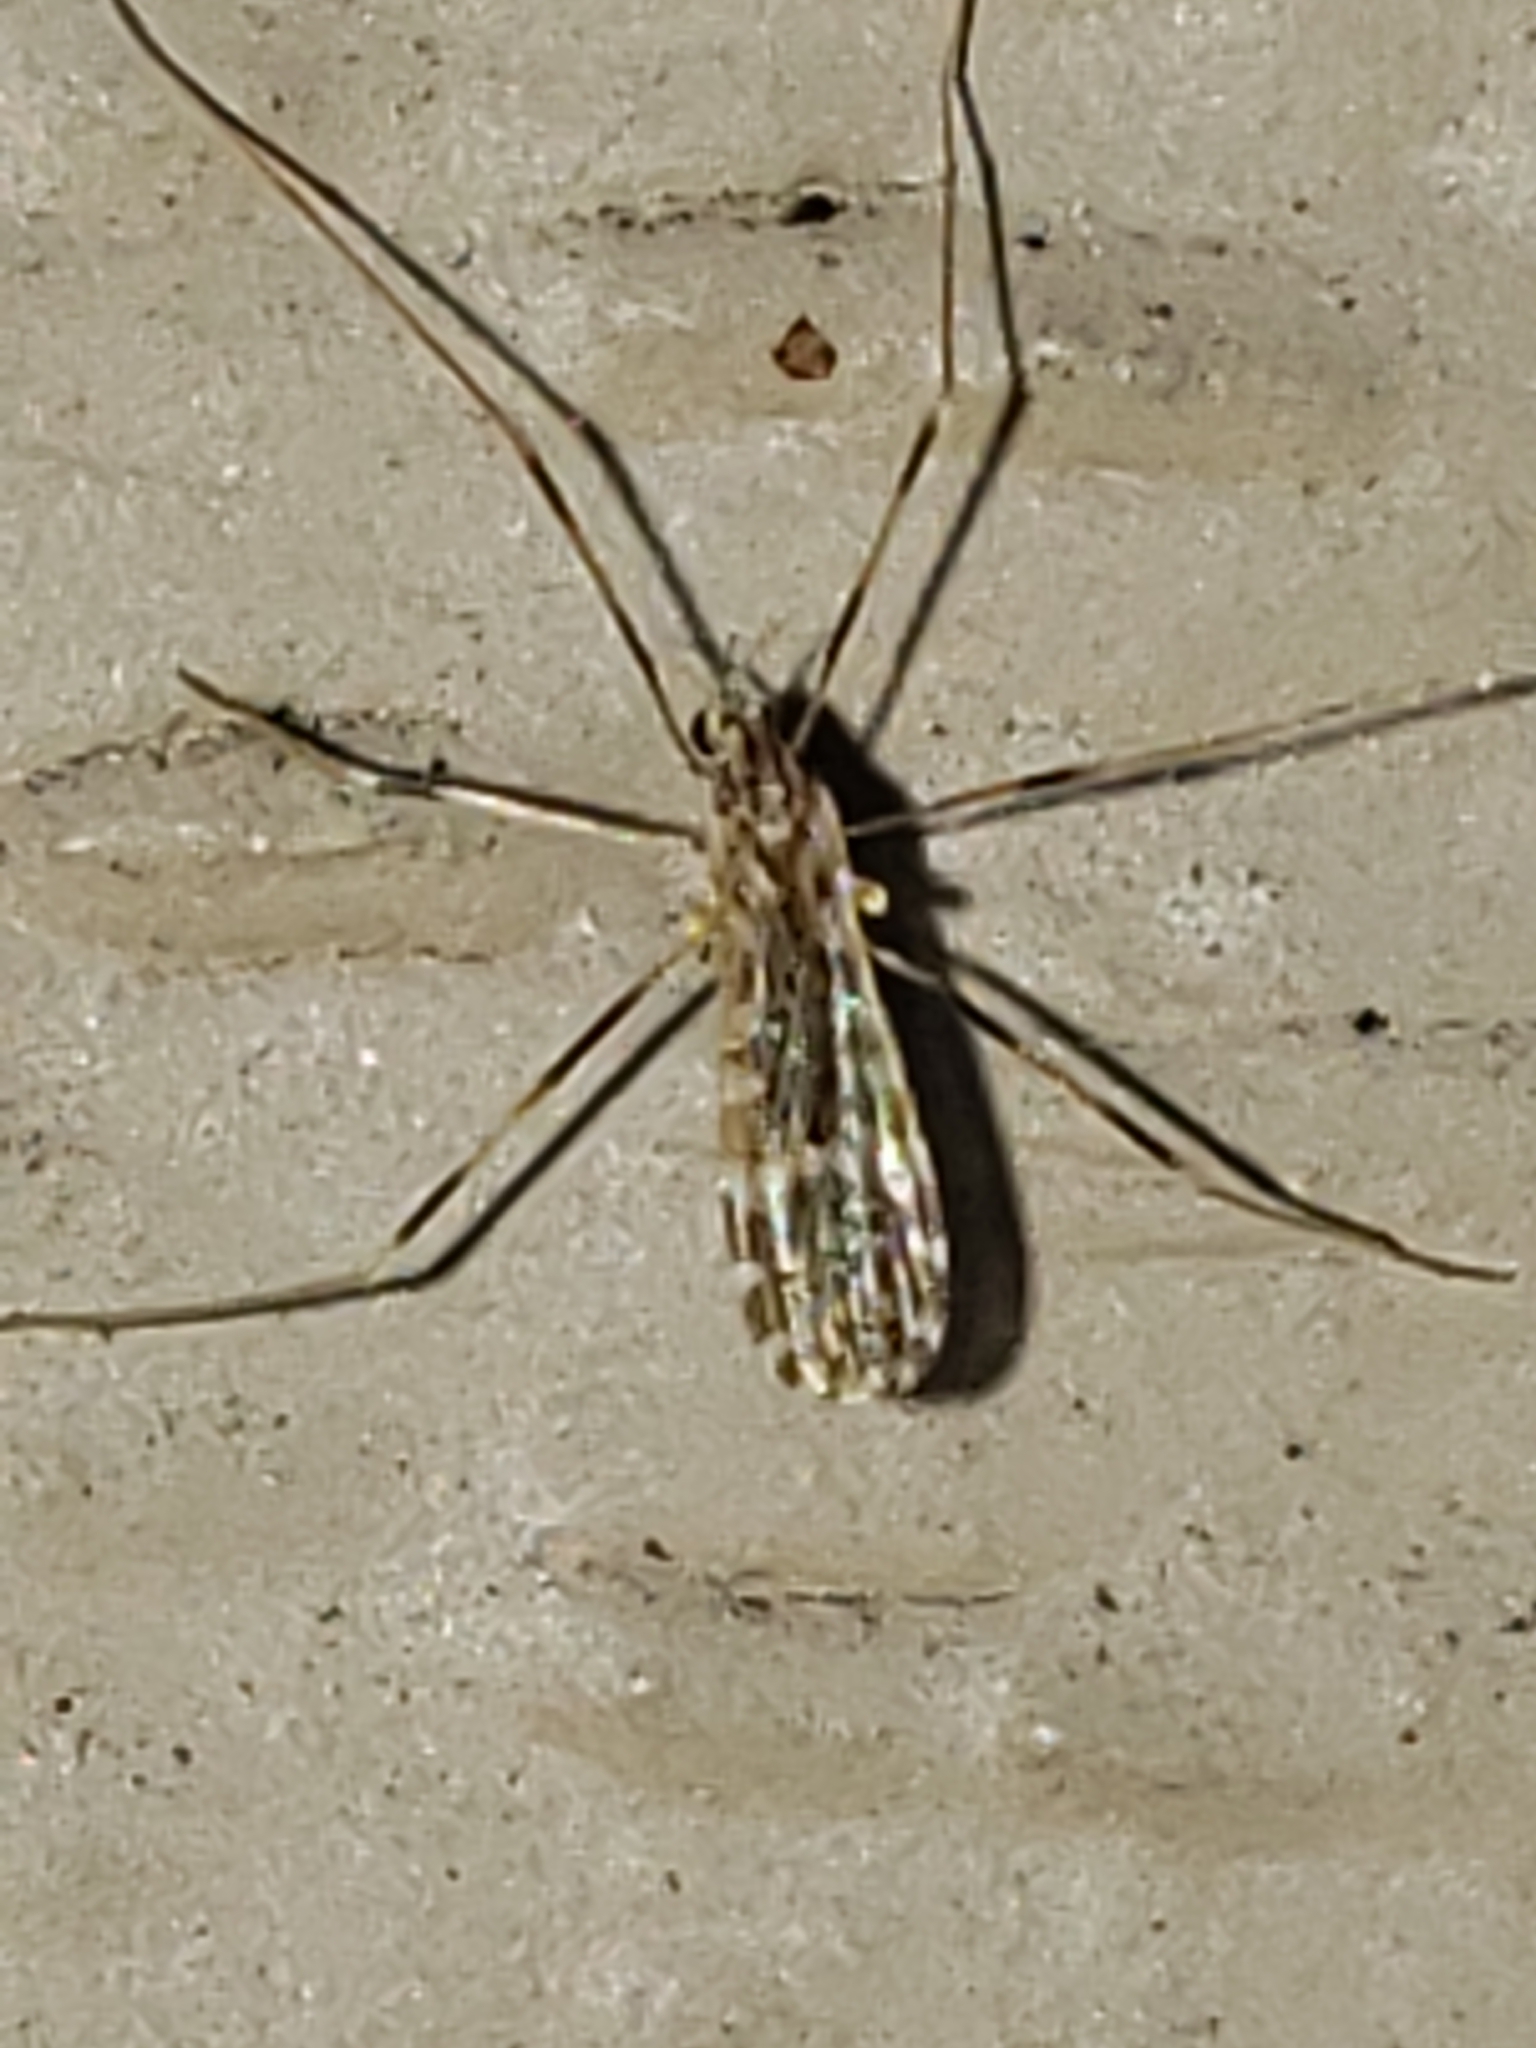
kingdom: Animalia
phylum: Arthropoda
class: Insecta
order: Diptera
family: Limoniidae
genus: Erioptera
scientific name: Erioptera caliptera
